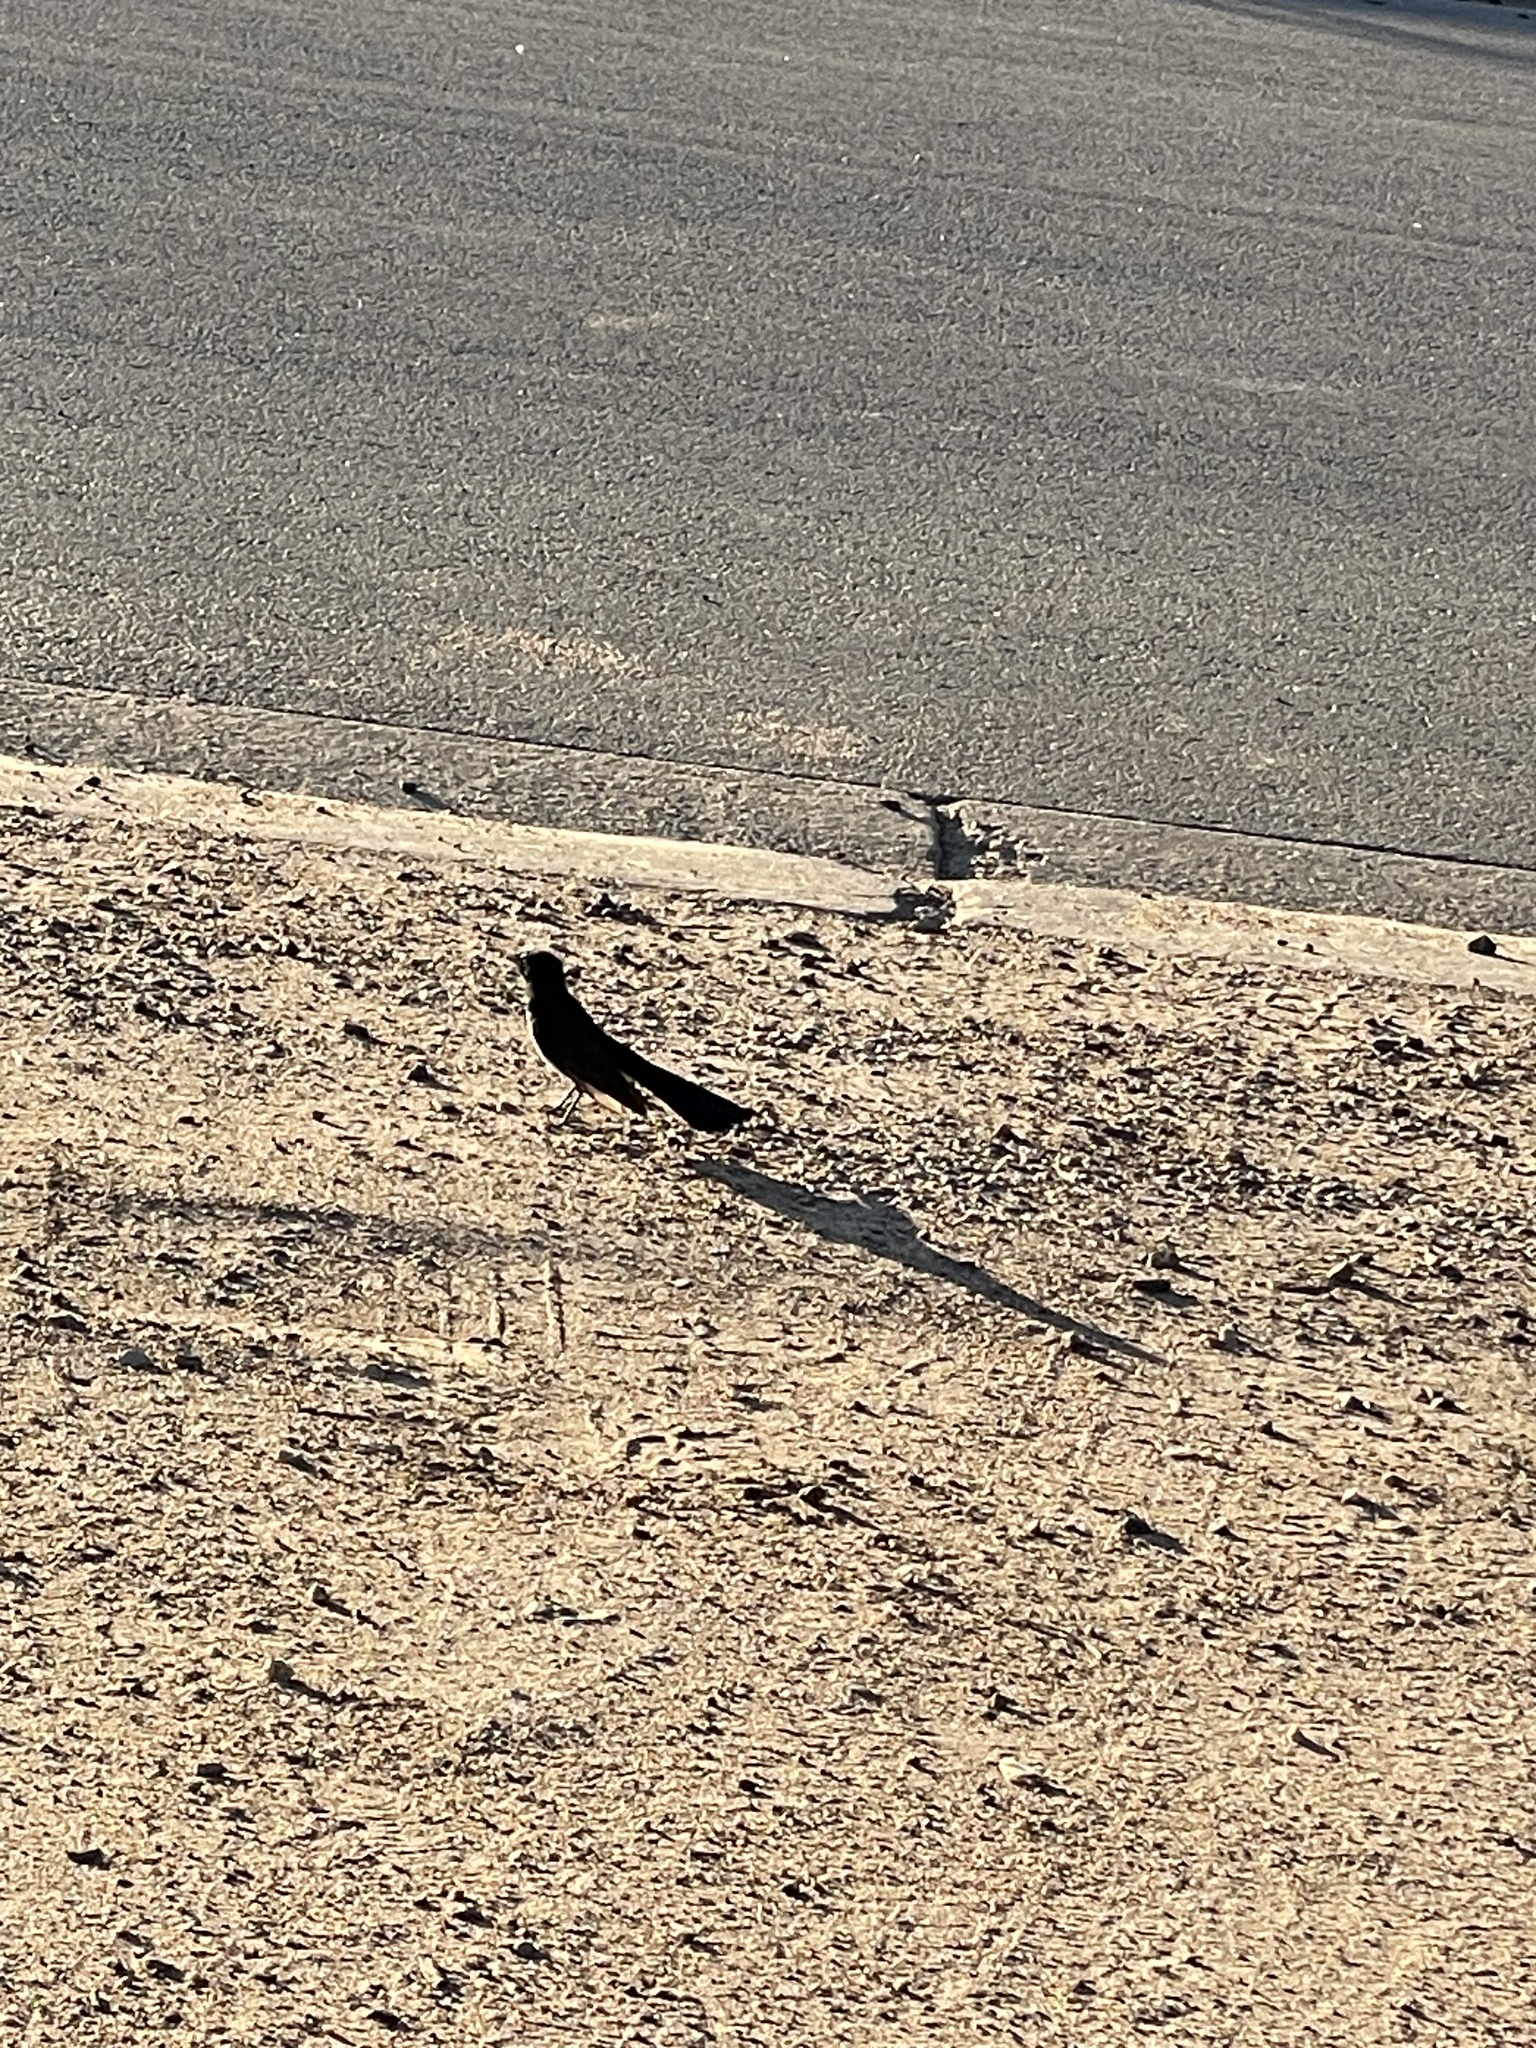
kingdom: Animalia
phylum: Chordata
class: Aves
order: Passeriformes
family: Rhipiduridae
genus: Rhipidura
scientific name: Rhipidura leucophrys
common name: Willie wagtail
